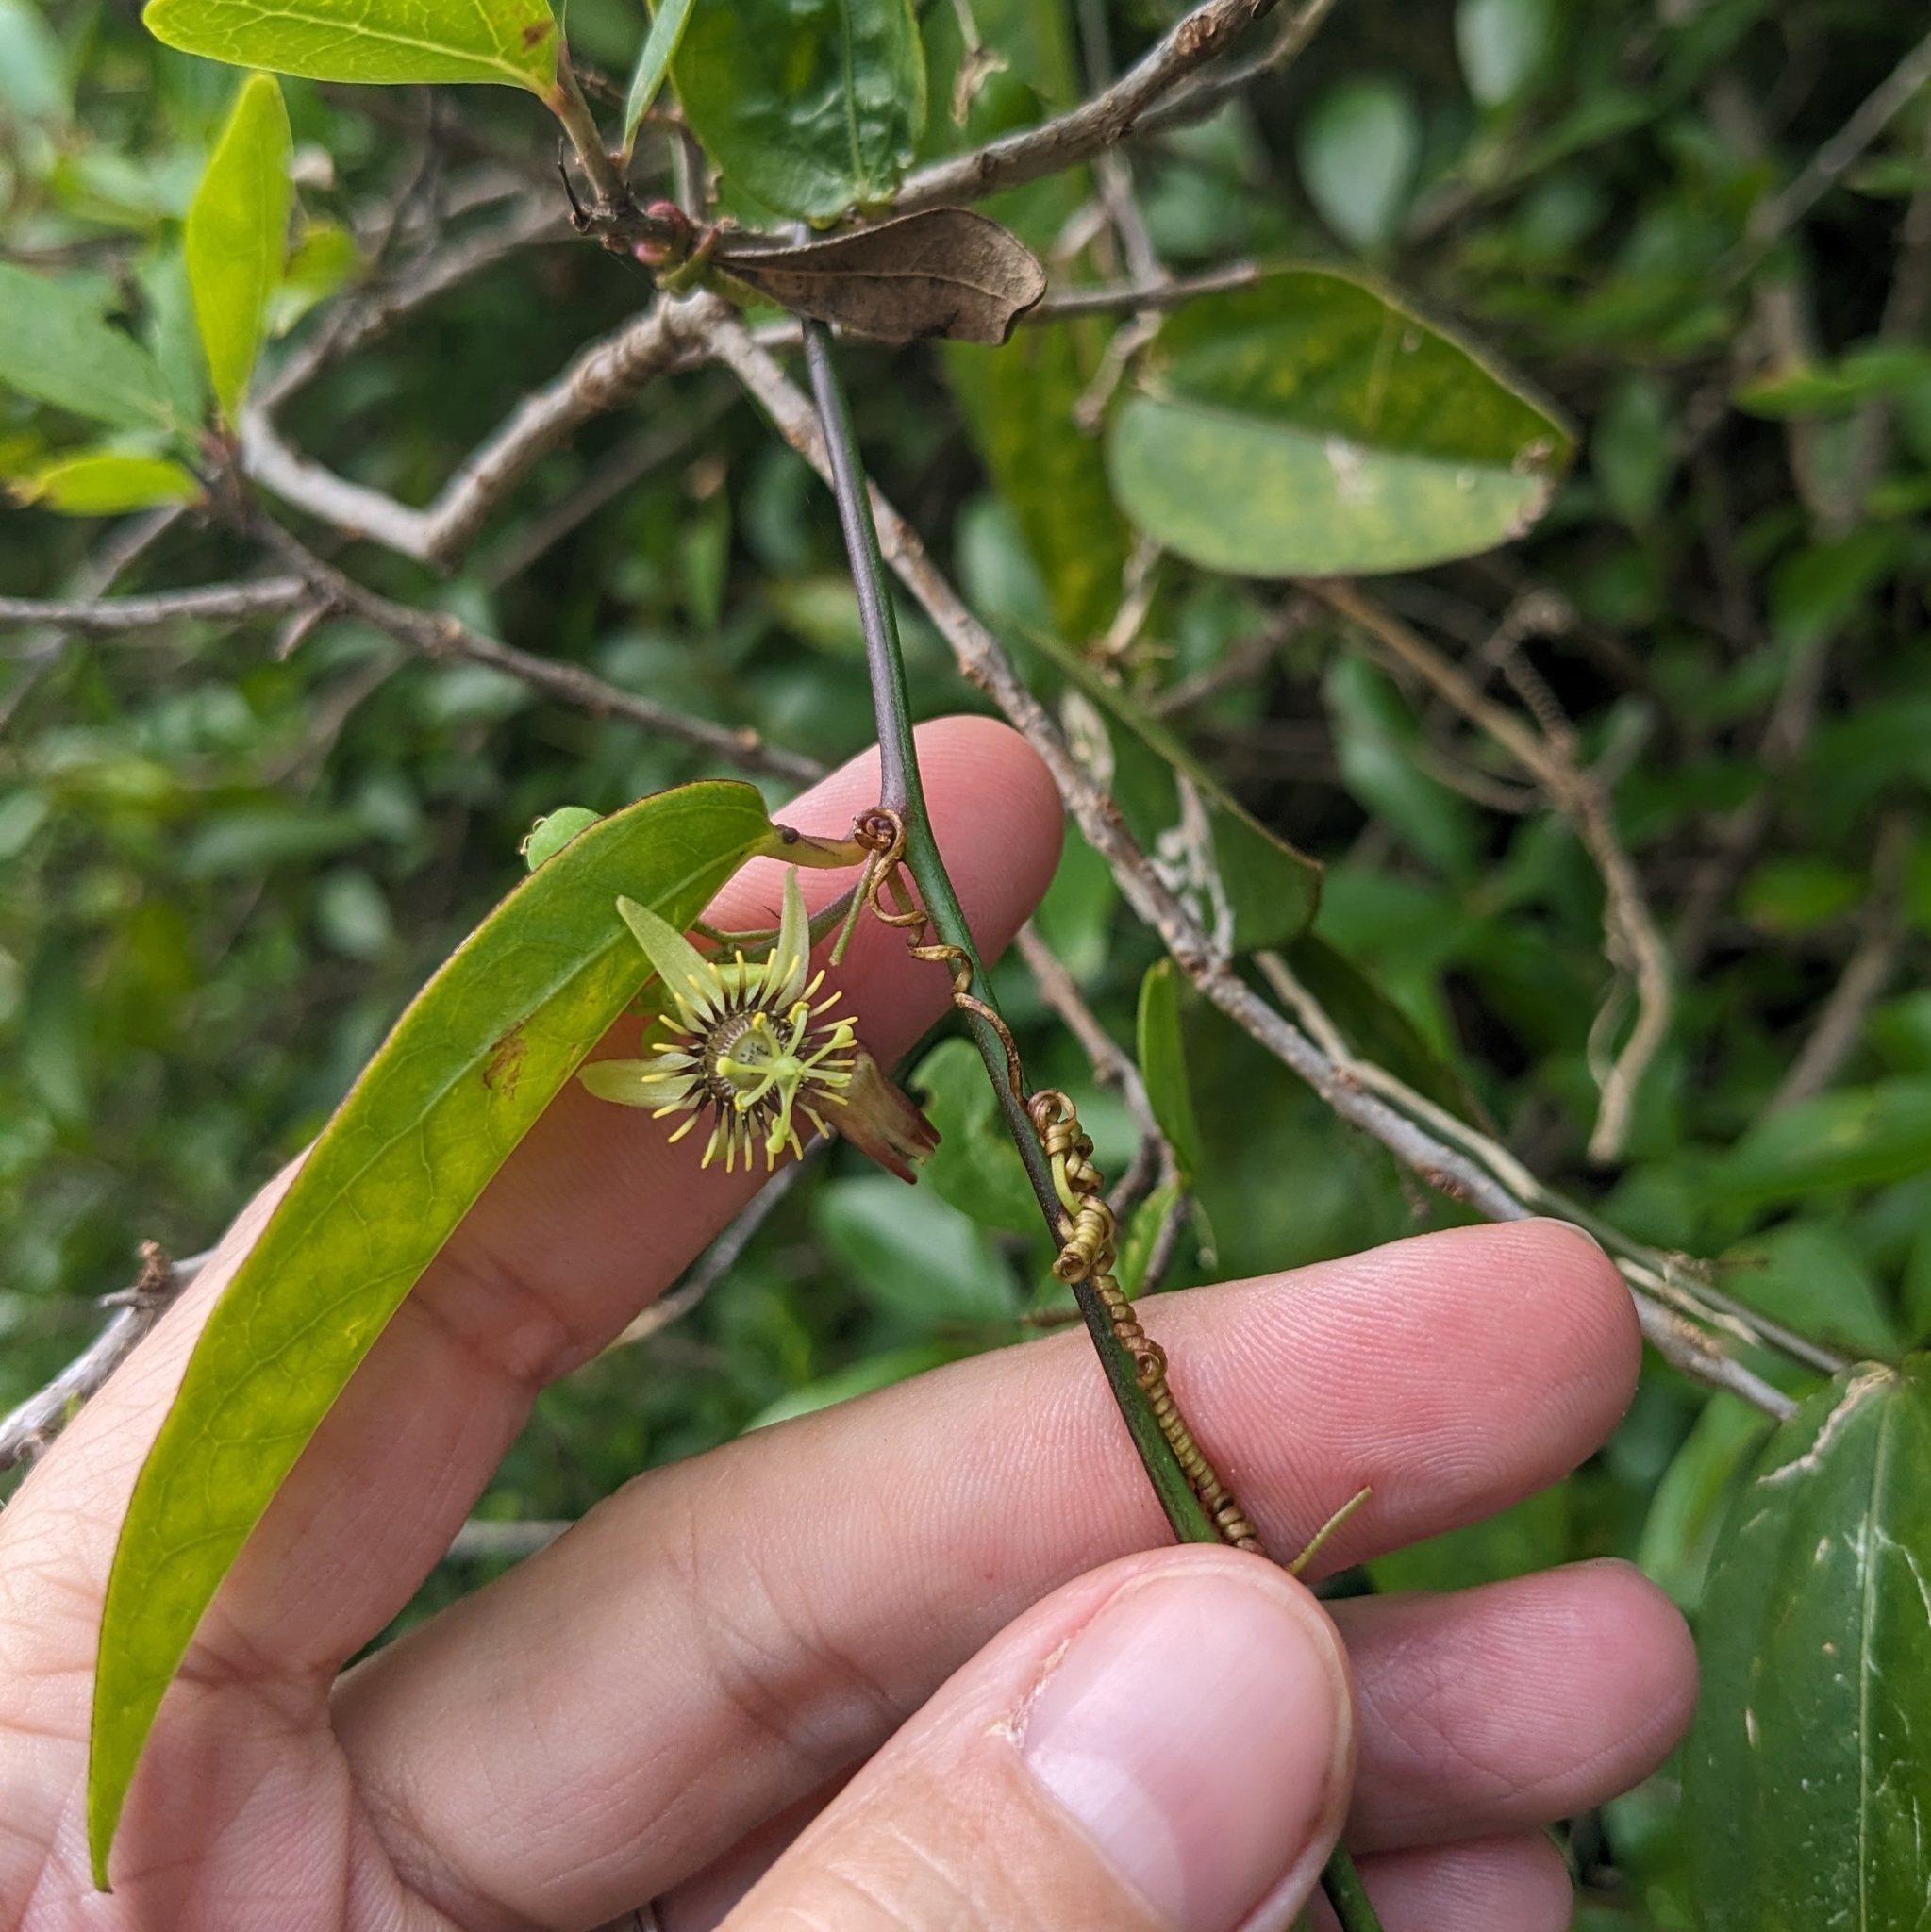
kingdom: Plantae
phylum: Tracheophyta
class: Magnoliopsida
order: Malpighiales
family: Passifloraceae
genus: Passiflora
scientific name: Passiflora pallida
